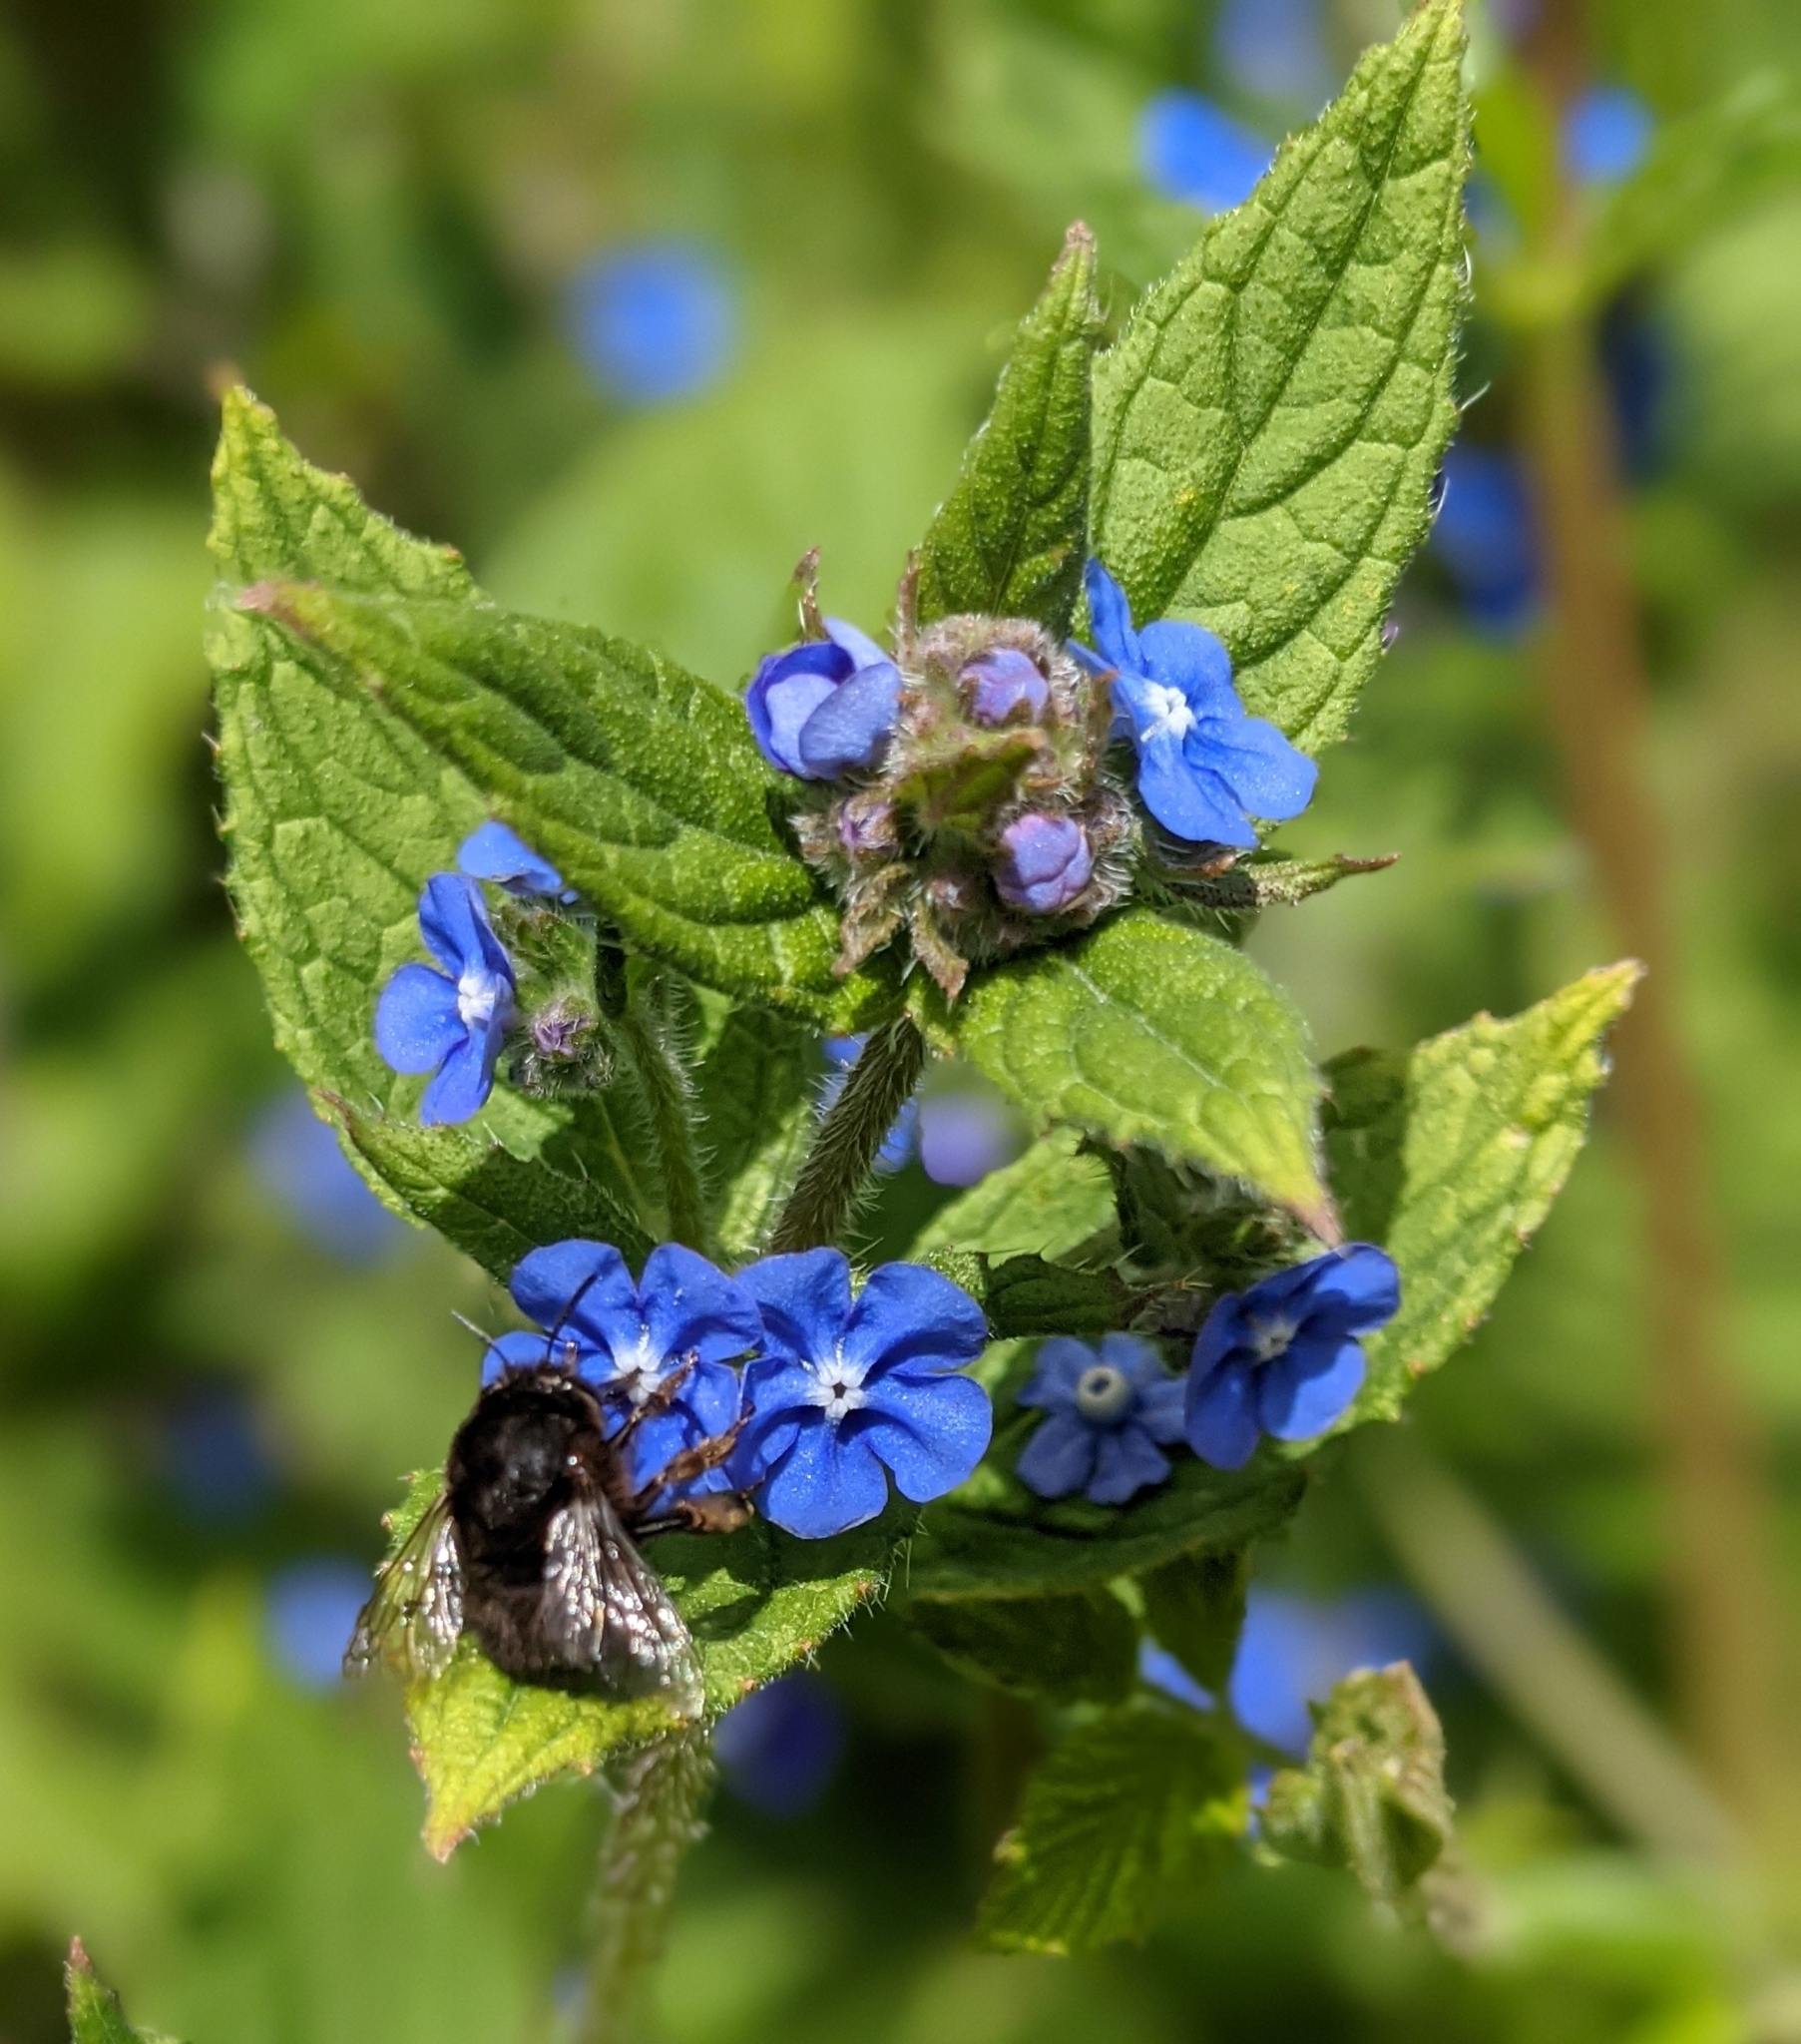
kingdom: Animalia
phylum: Arthropoda
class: Insecta
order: Hymenoptera
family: Apidae
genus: Anthophora
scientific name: Anthophora plumipes
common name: Hairy-footed flower bee
